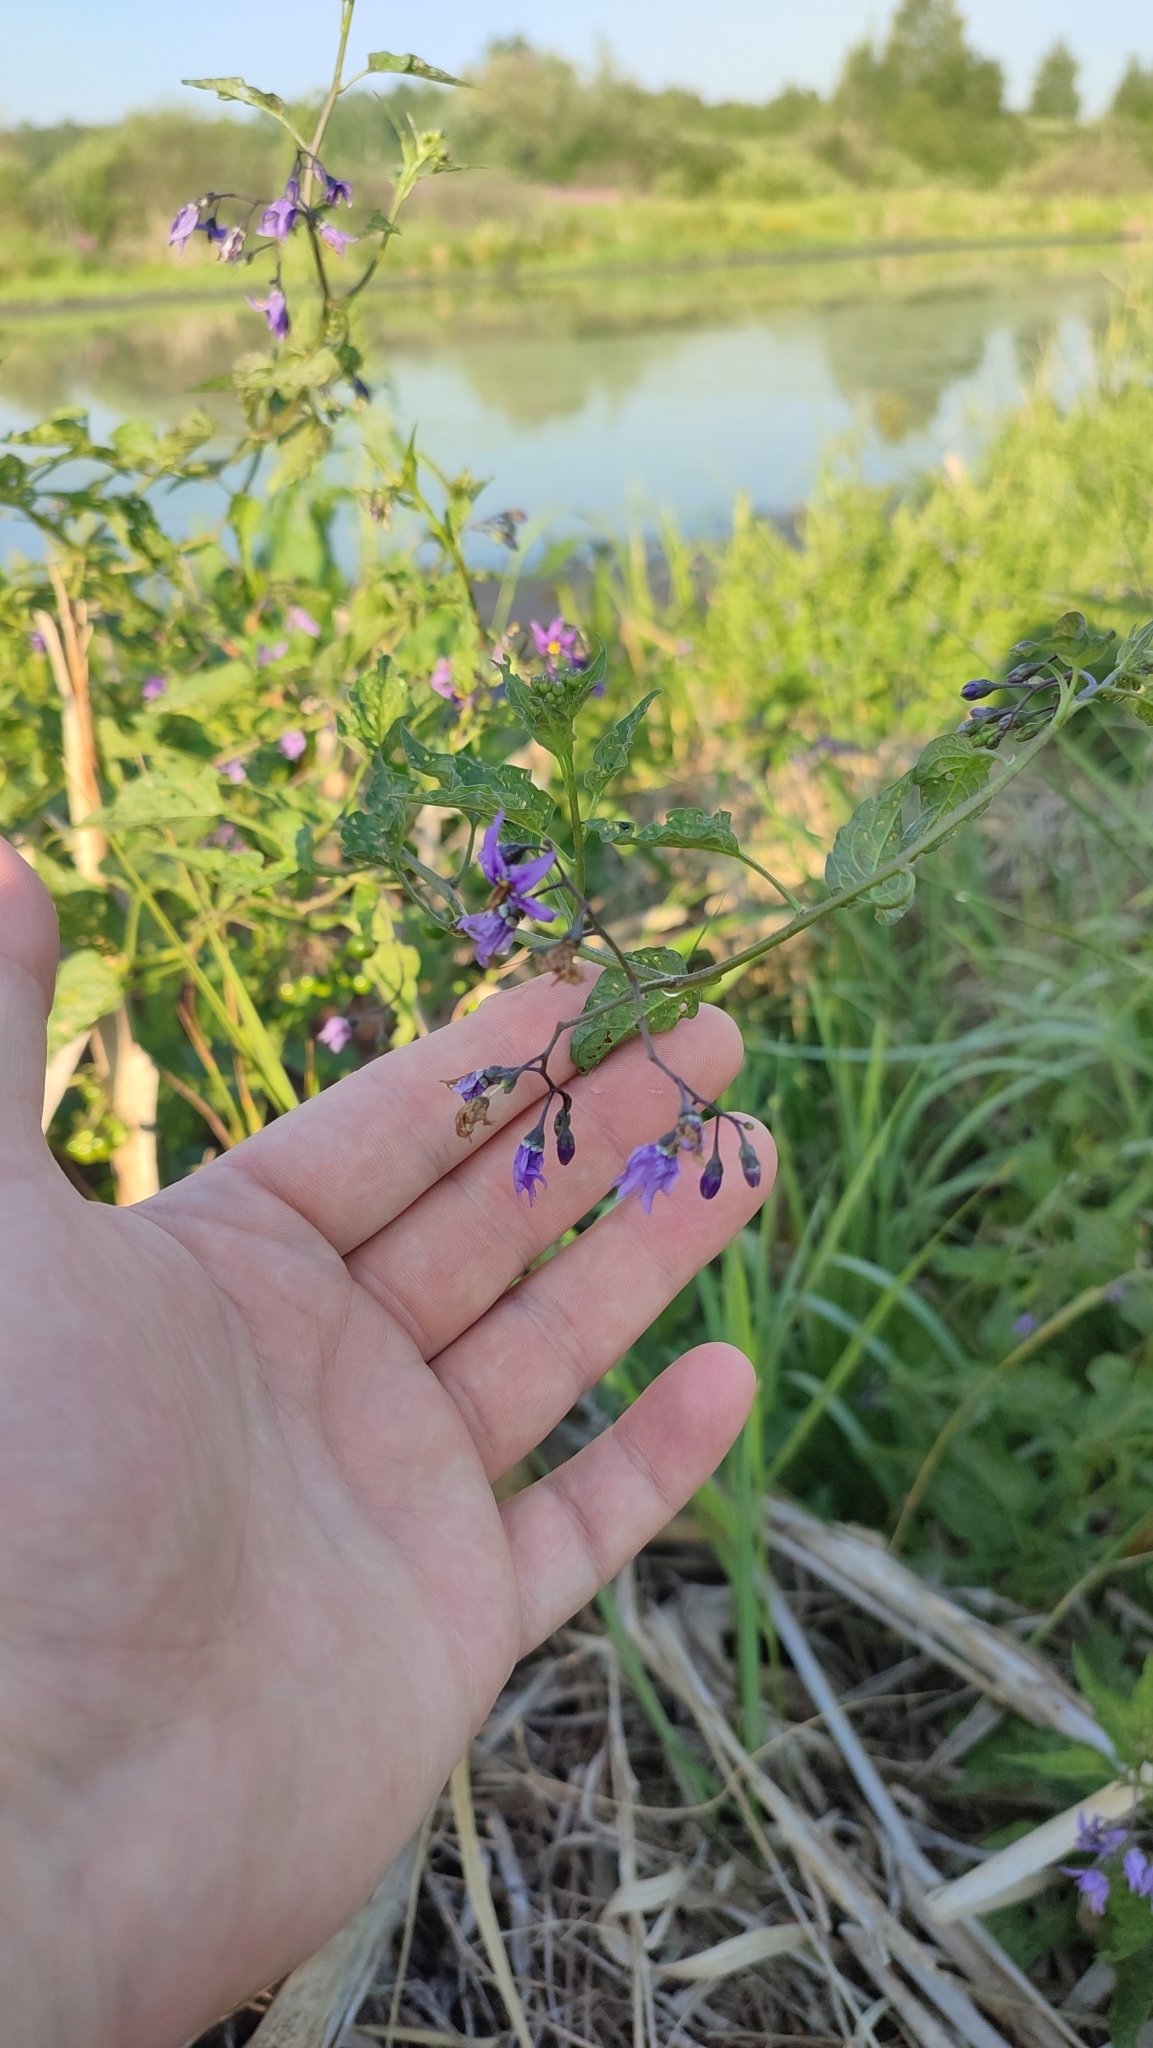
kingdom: Plantae
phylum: Tracheophyta
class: Magnoliopsida
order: Solanales
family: Solanaceae
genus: Solanum
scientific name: Solanum dulcamara
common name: Climbing nightshade
